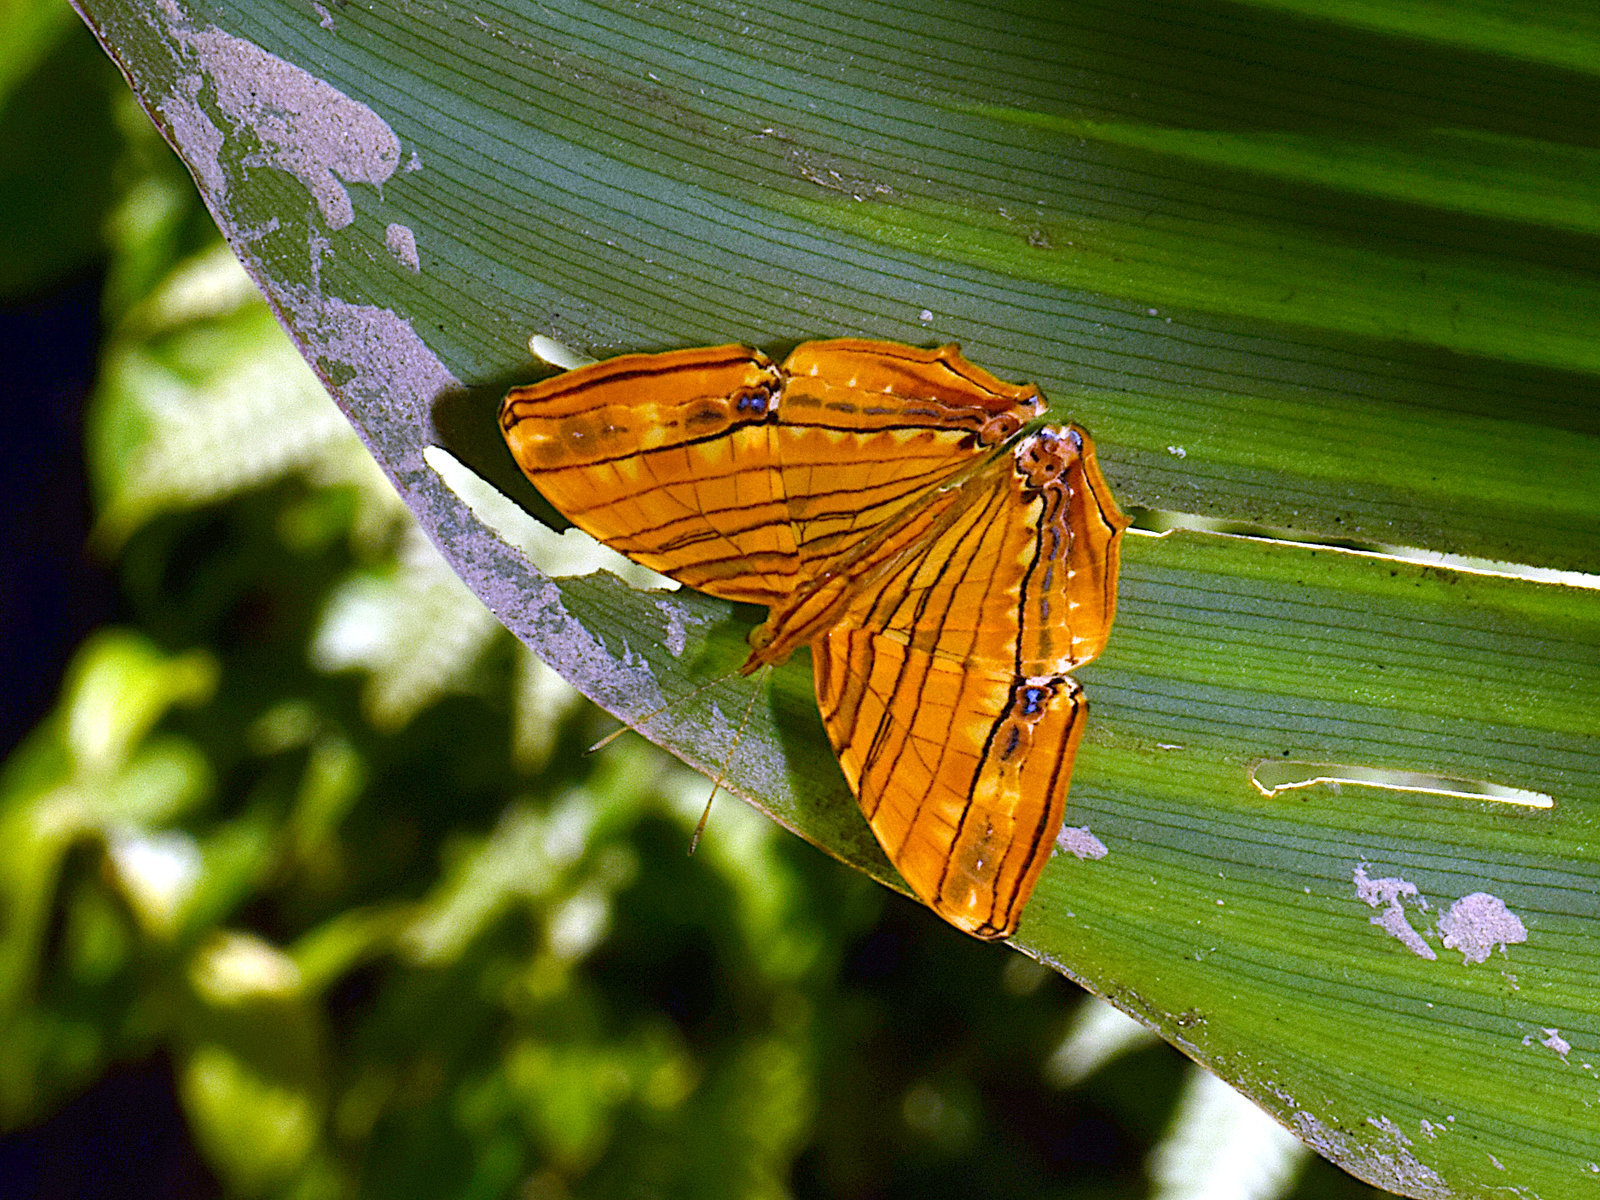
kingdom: Animalia
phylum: Arthropoda
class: Insecta
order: Lepidoptera
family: Nymphalidae
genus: Chersonesia
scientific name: Chersonesia risa
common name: Common maplet
